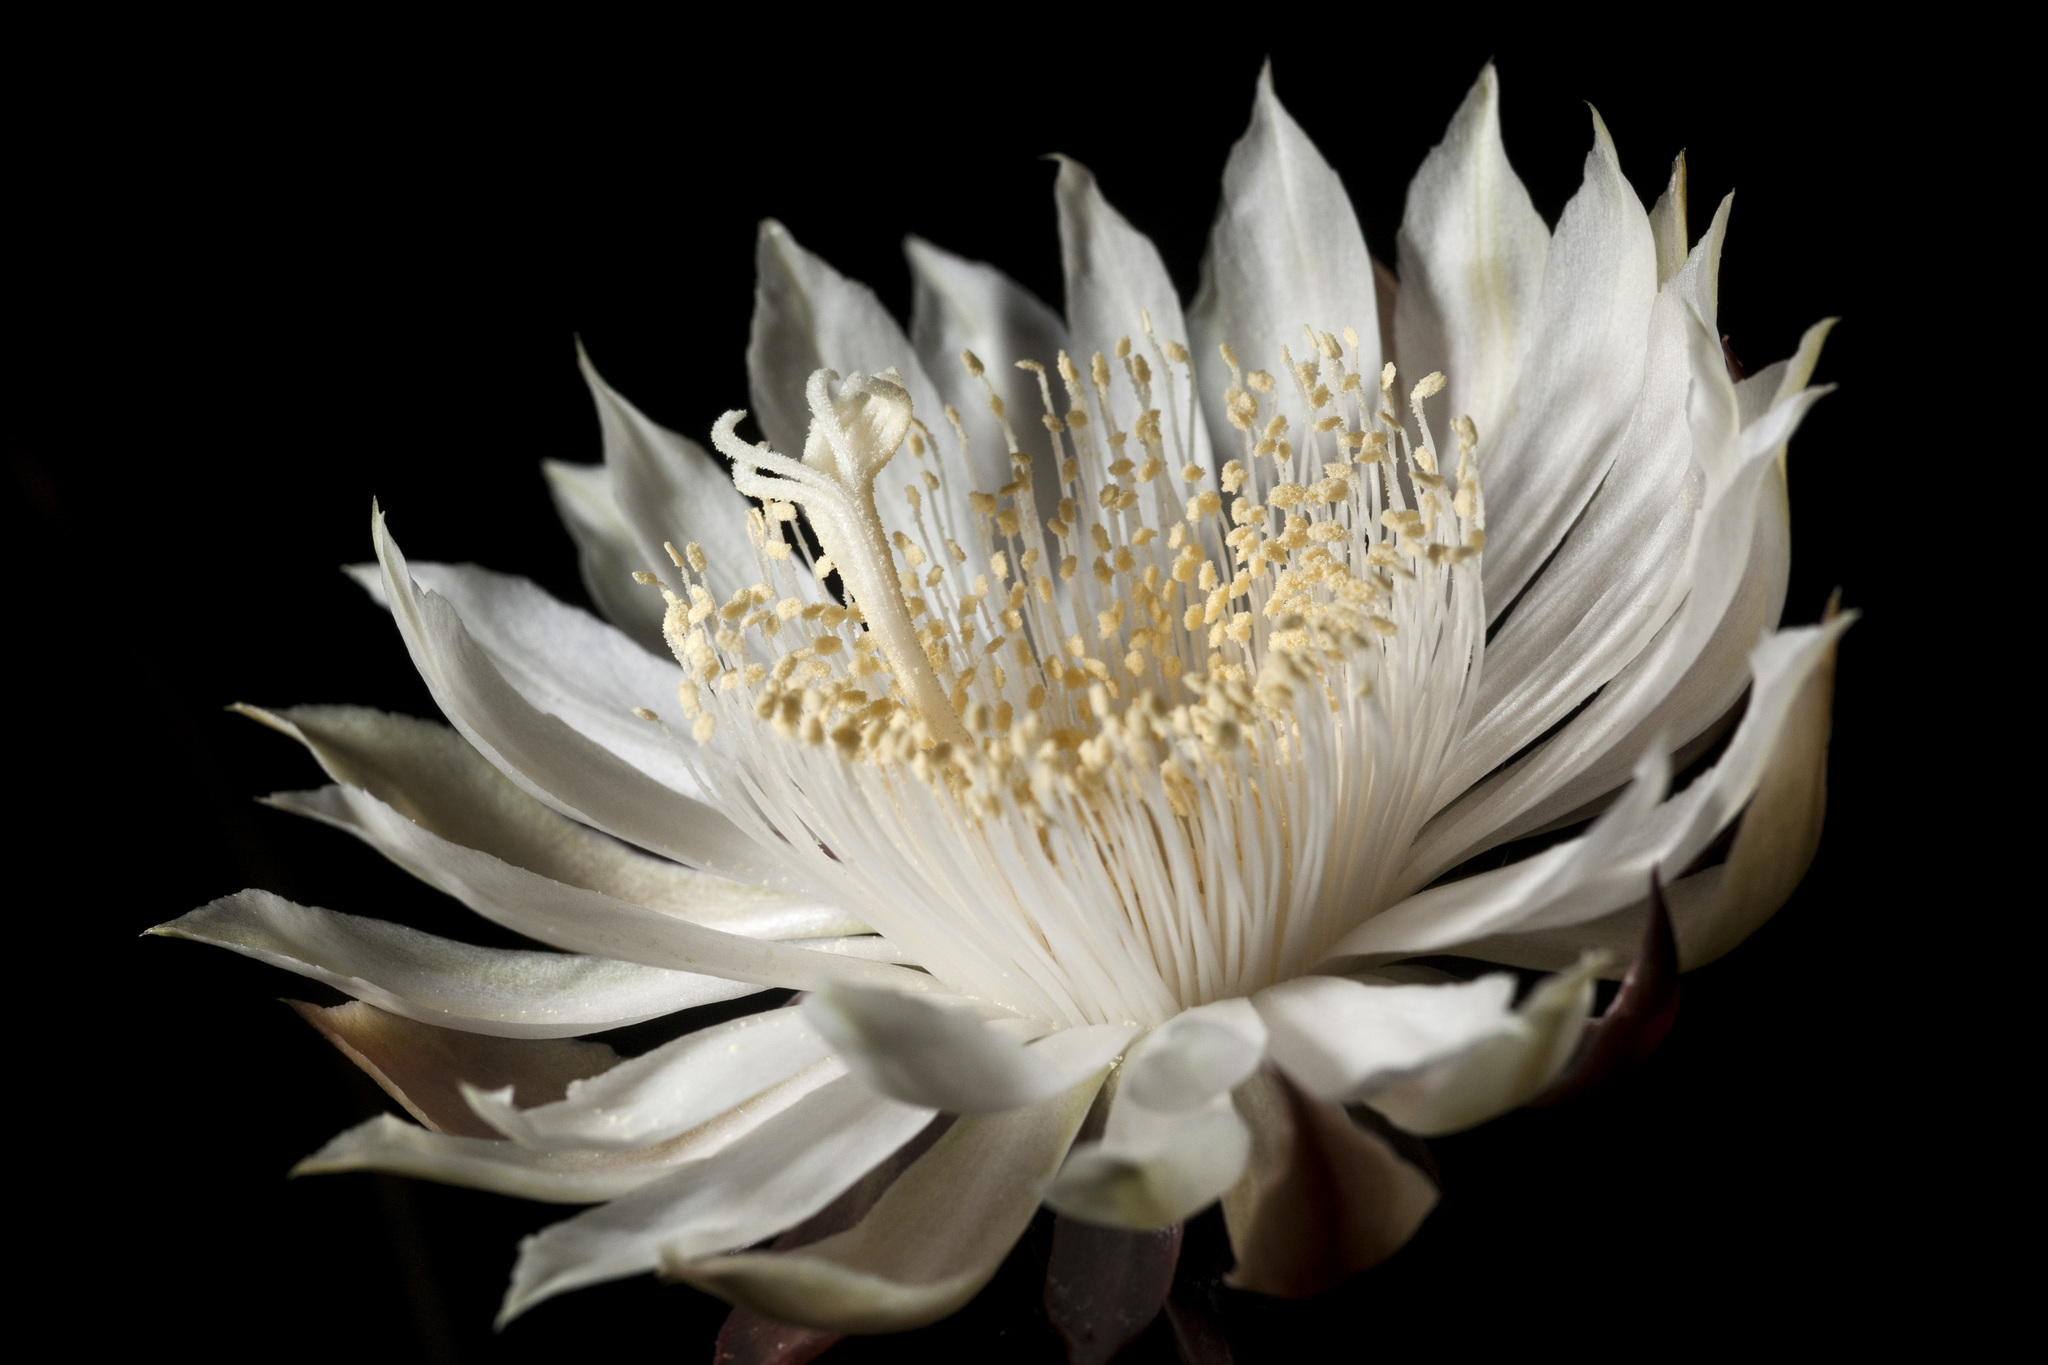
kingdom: Plantae
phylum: Tracheophyta
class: Magnoliopsida
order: Caryophyllales
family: Cactaceae
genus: Peniocereus
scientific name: Peniocereus greggii
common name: Desert night-blooming cereus
